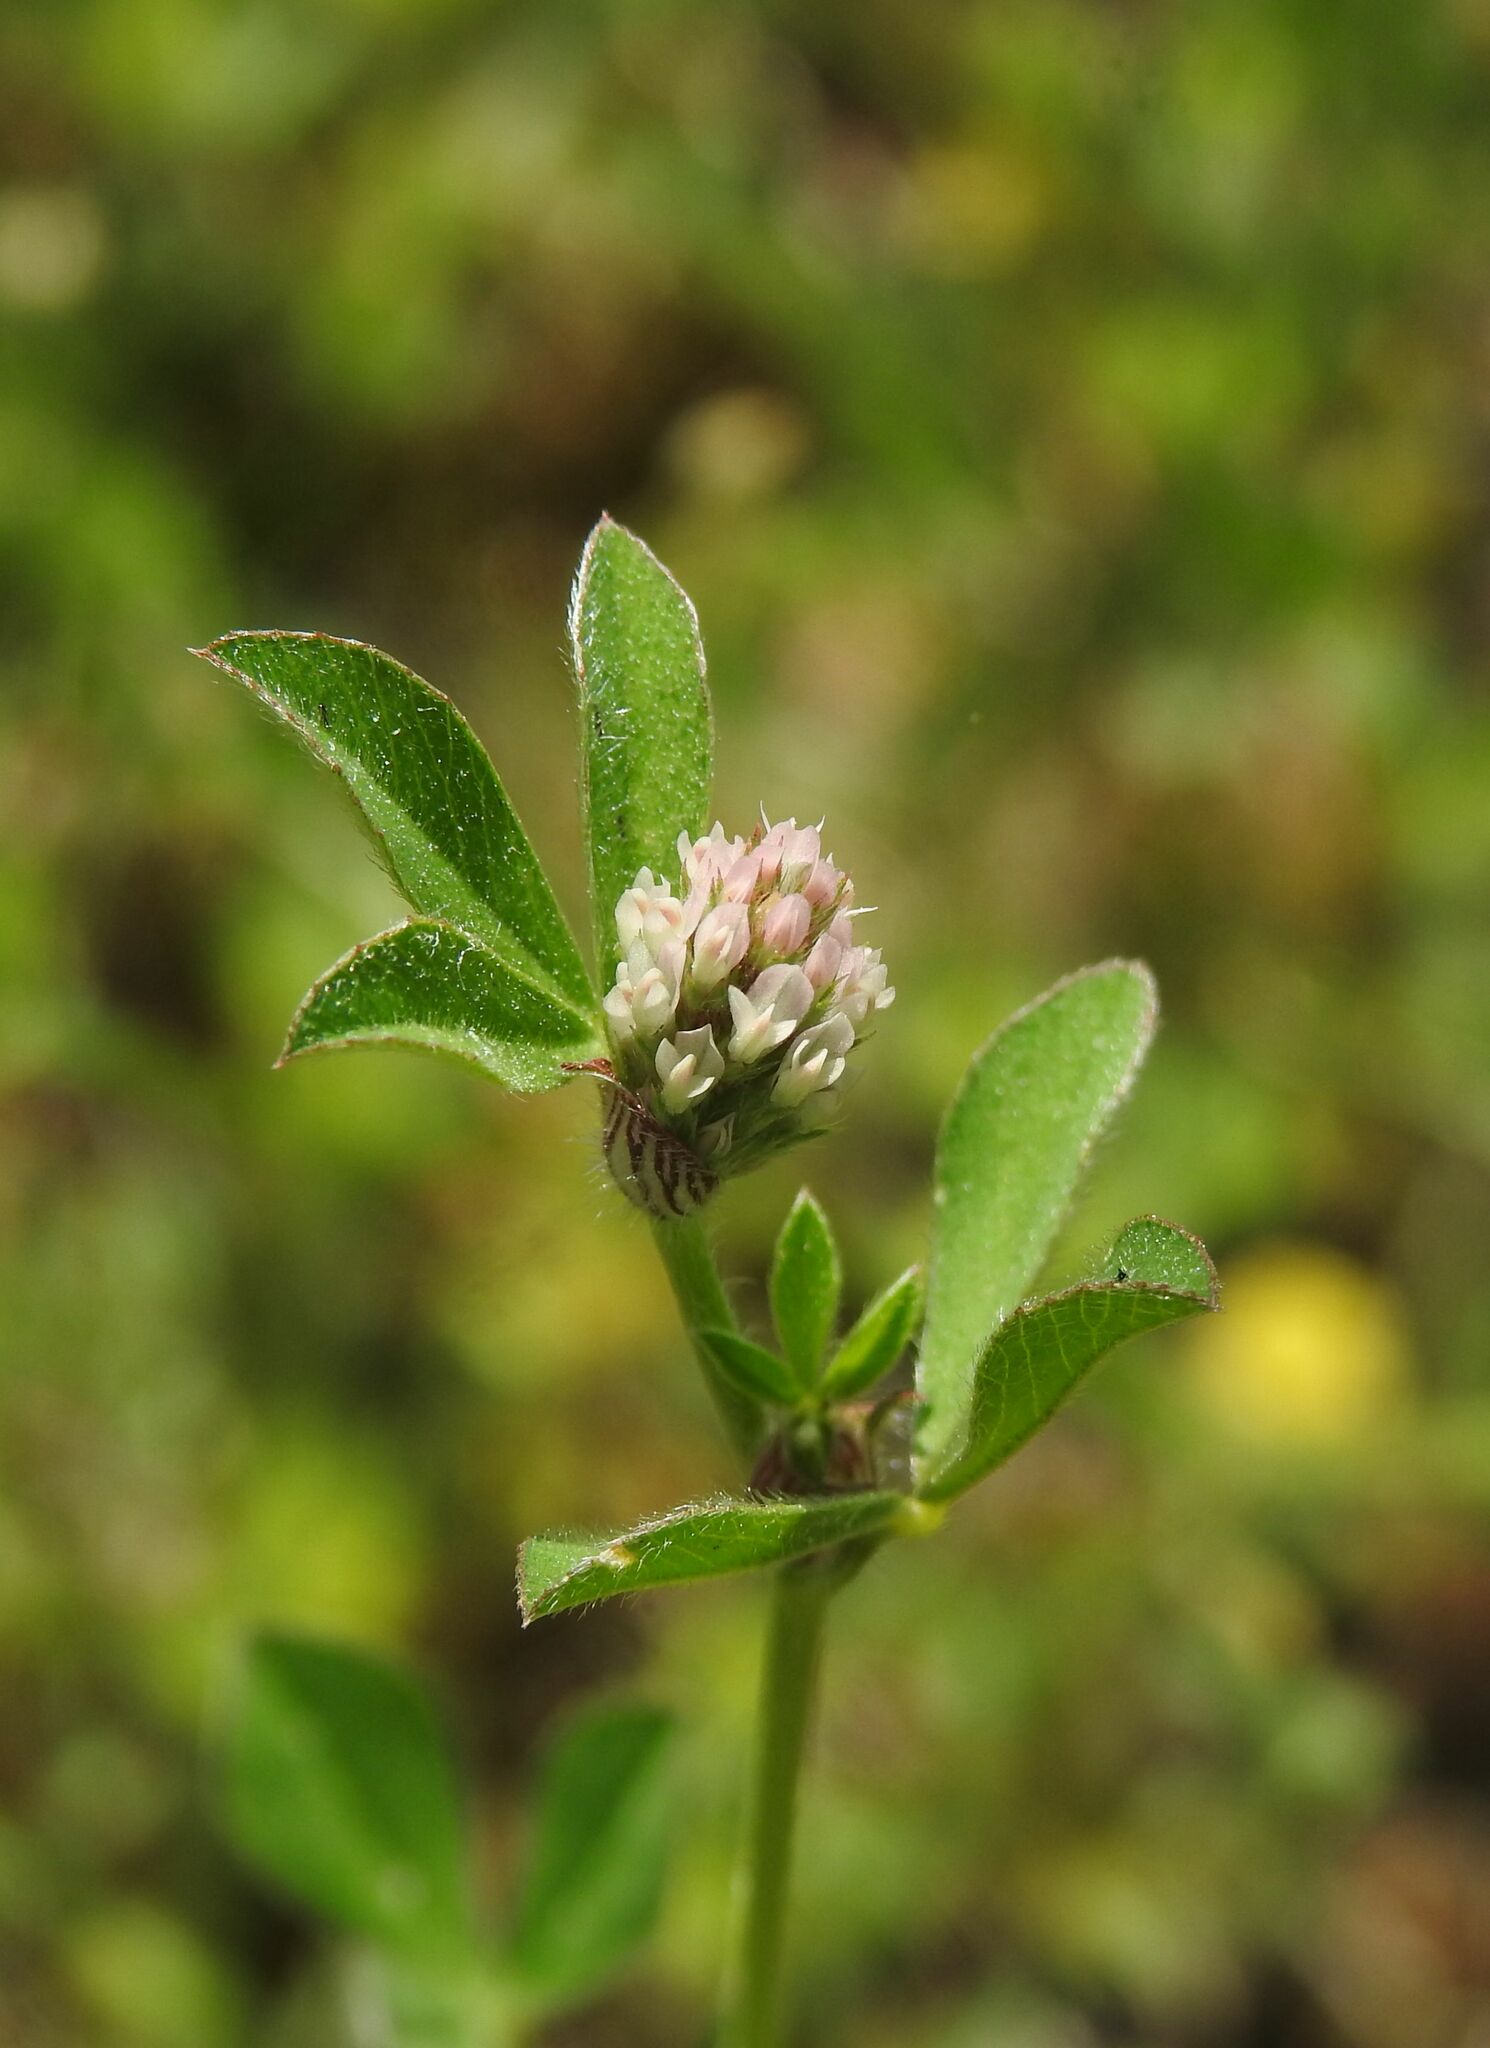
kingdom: Plantae
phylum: Tracheophyta
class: Magnoliopsida
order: Fabales
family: Fabaceae
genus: Trifolium
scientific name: Trifolium striatum
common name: Knotted clover
